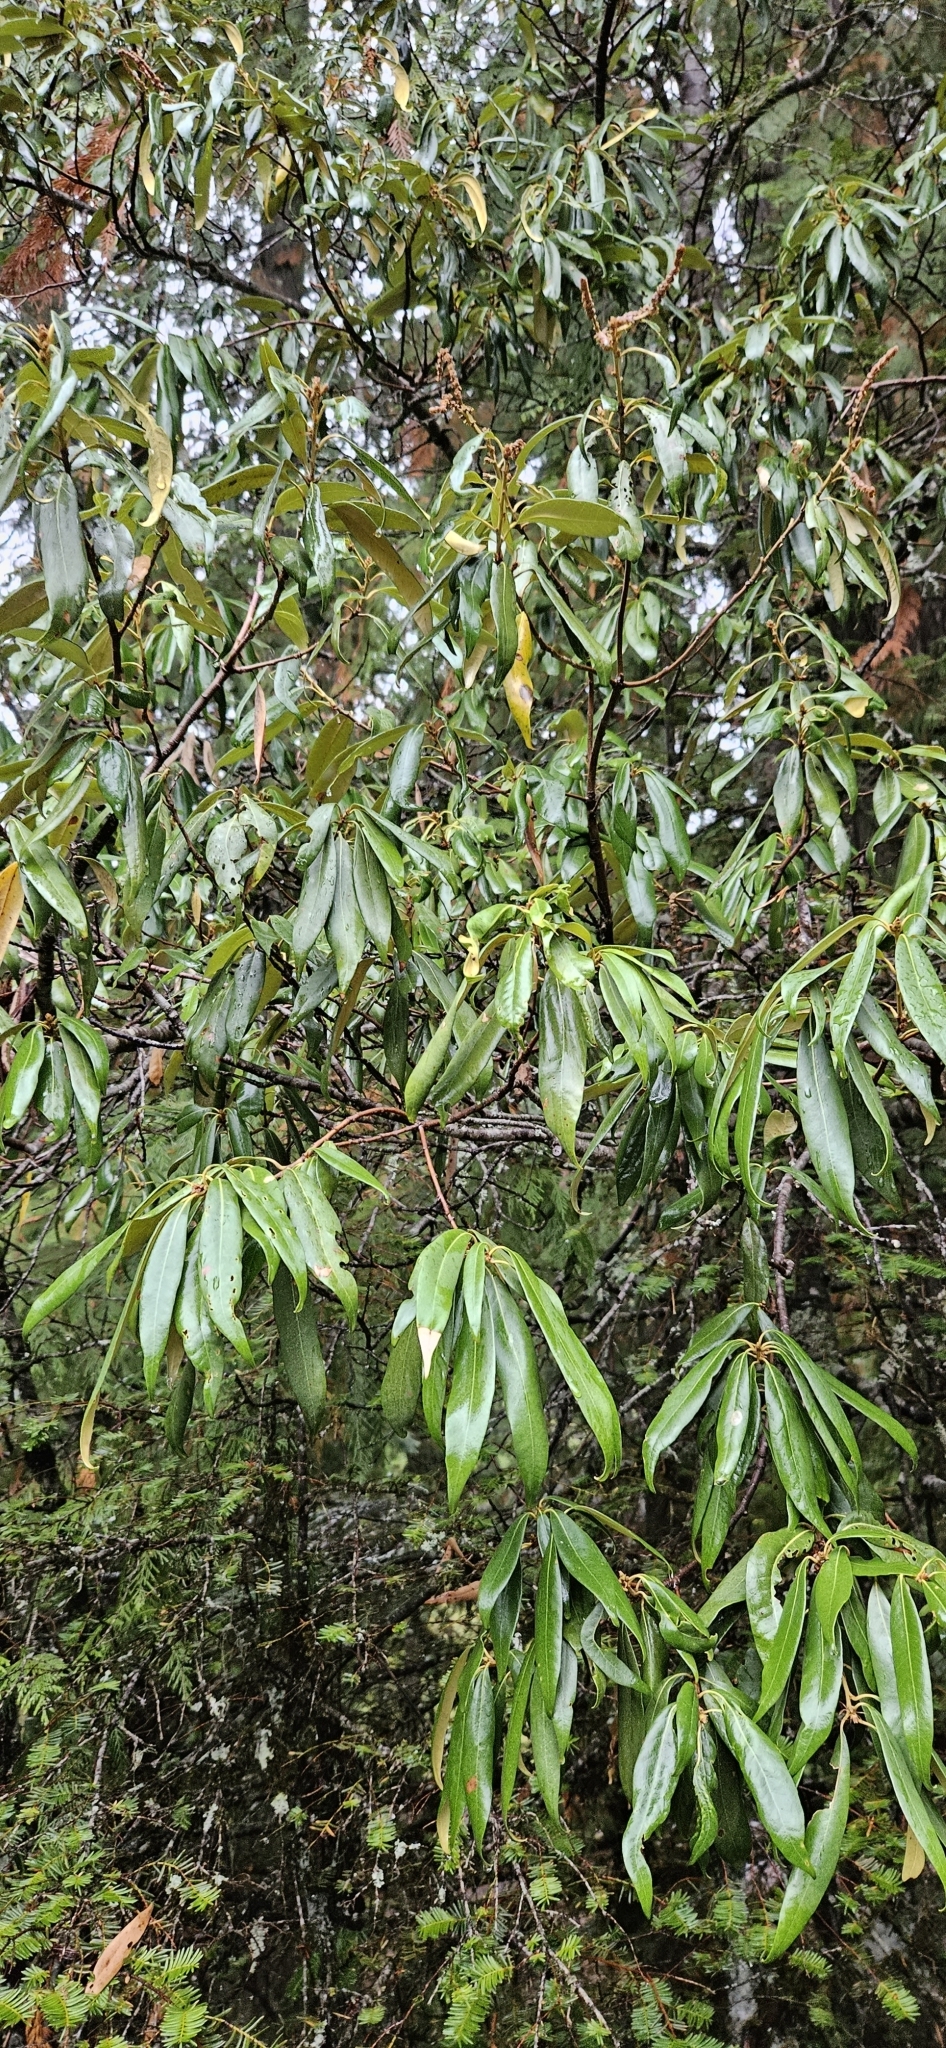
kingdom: Plantae
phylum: Tracheophyta
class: Magnoliopsida
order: Fagales
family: Fagaceae
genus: Chrysolepis
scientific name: Chrysolepis chrysophylla
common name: Giant chinquapin
